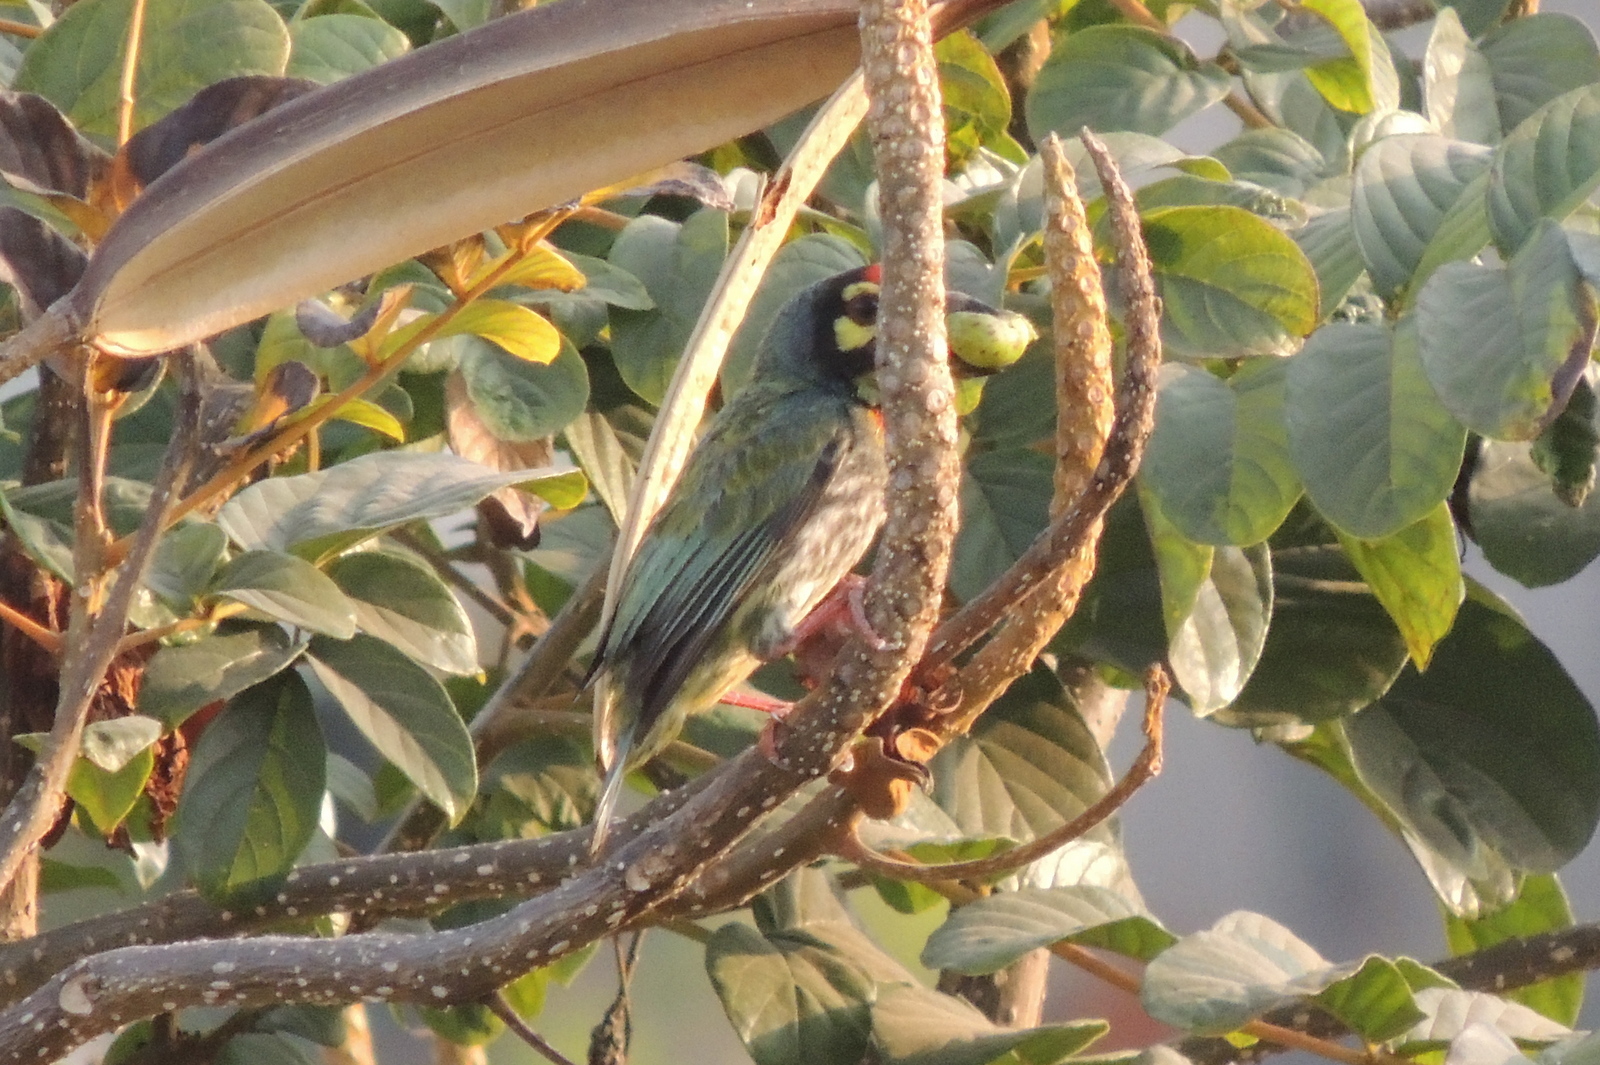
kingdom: Animalia
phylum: Chordata
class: Aves
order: Piciformes
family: Megalaimidae
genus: Psilopogon
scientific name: Psilopogon haemacephalus
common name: Coppersmith barbet
